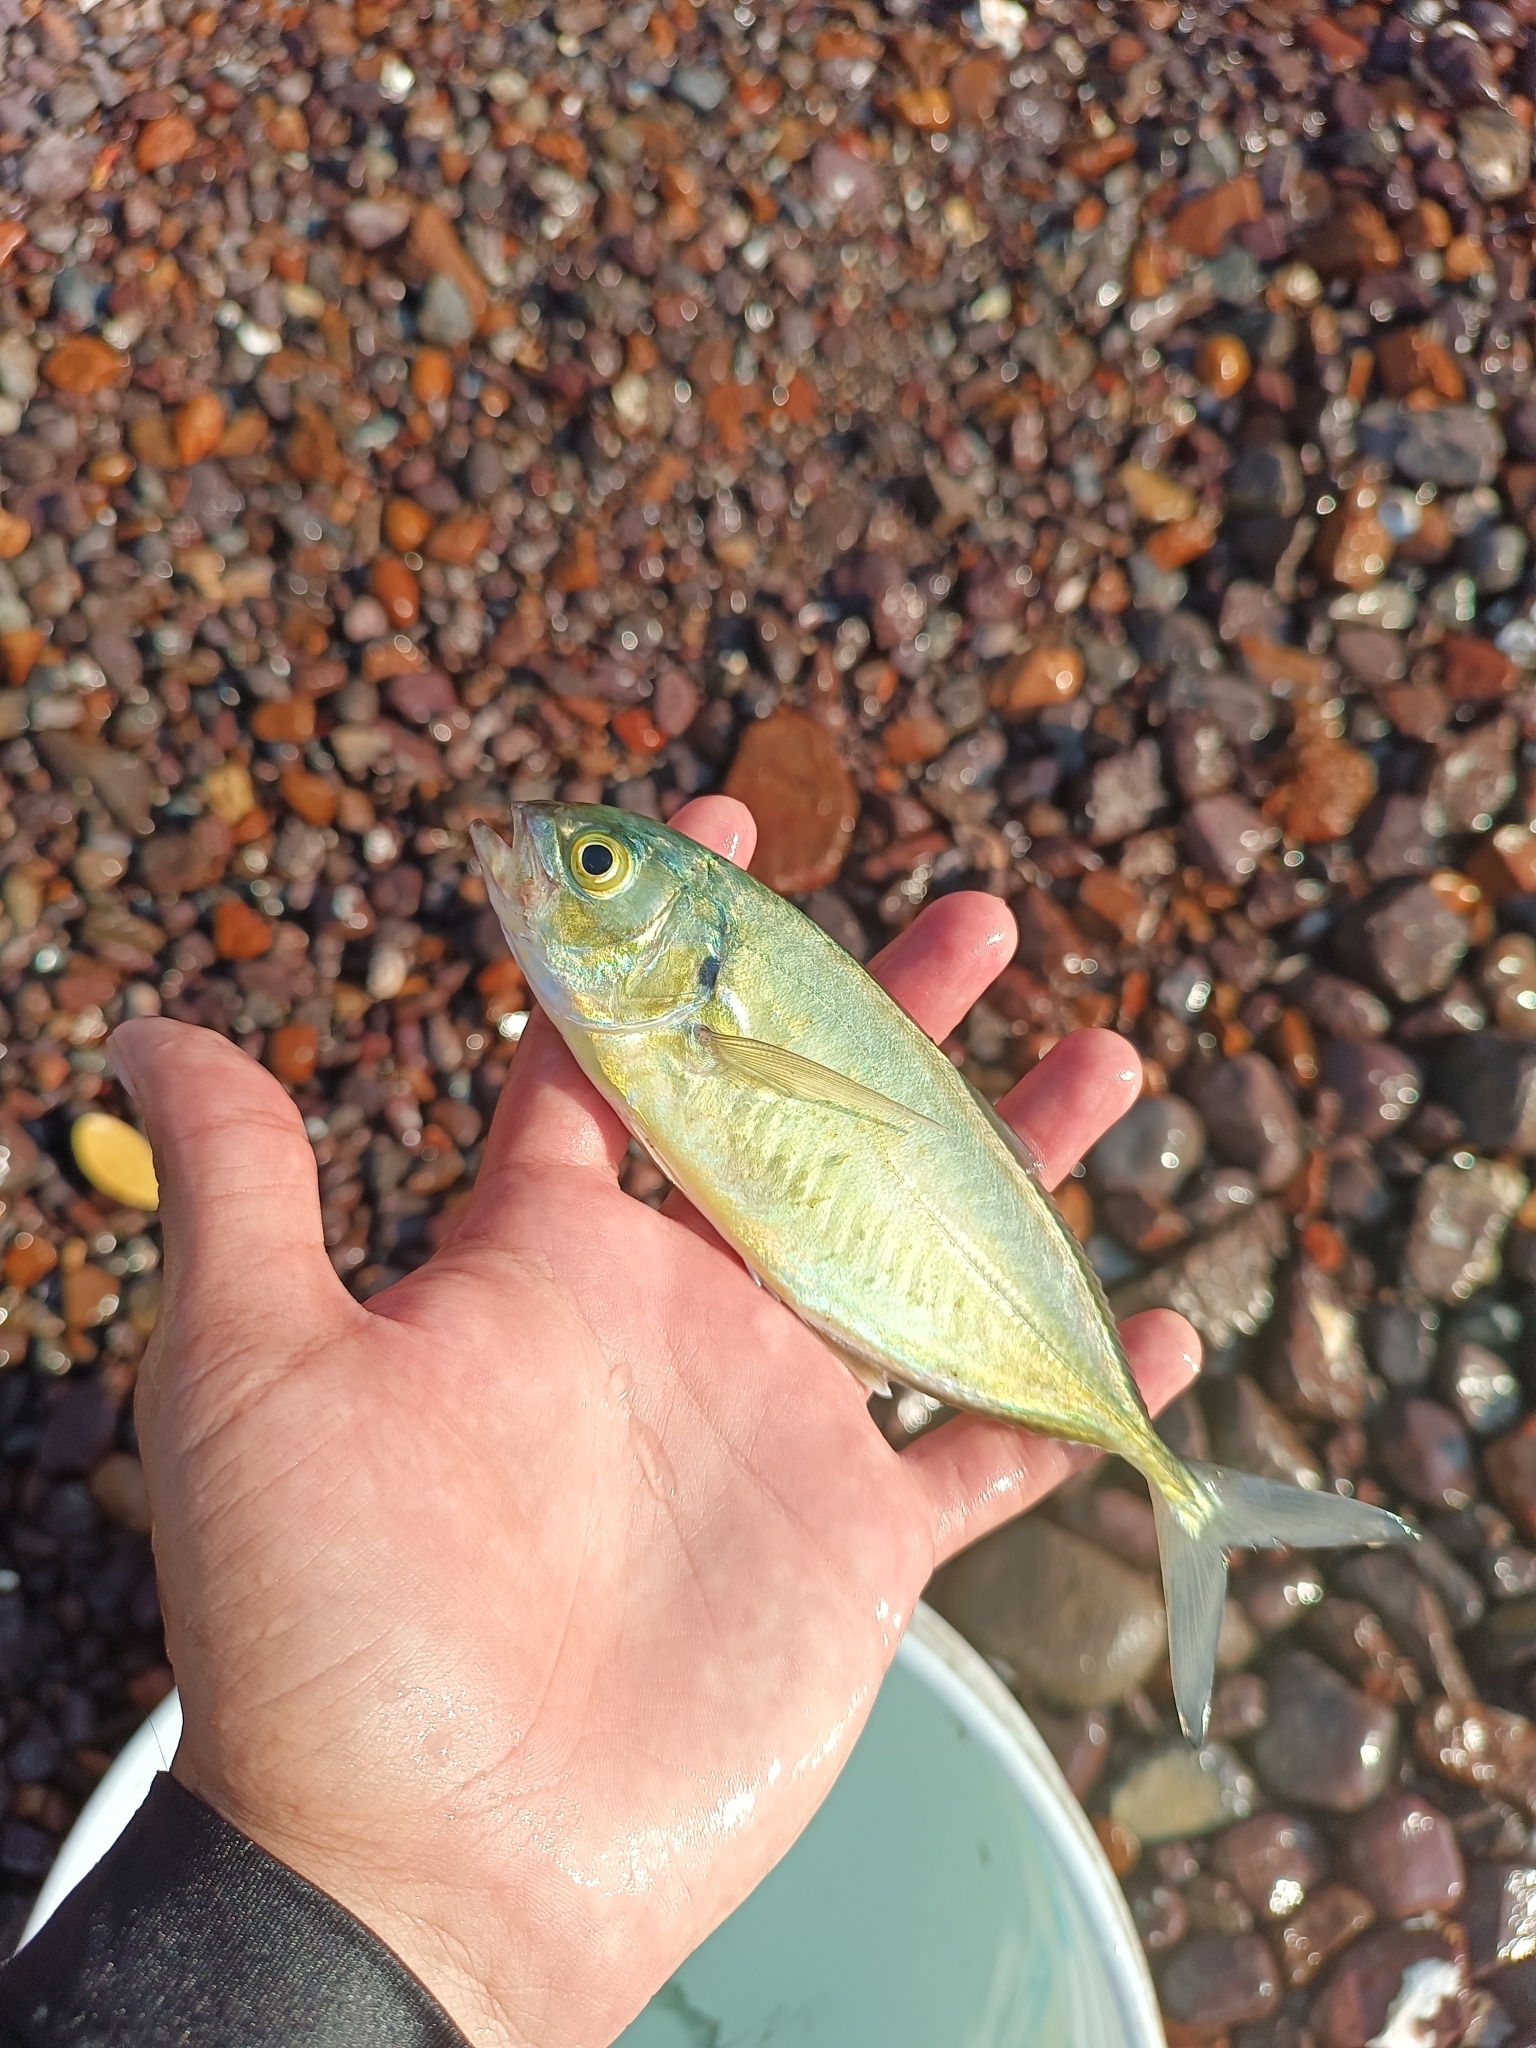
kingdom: Animalia
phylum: Chordata
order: Perciformes
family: Carangidae
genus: Caranx
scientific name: Caranx caballus
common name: Green jack
